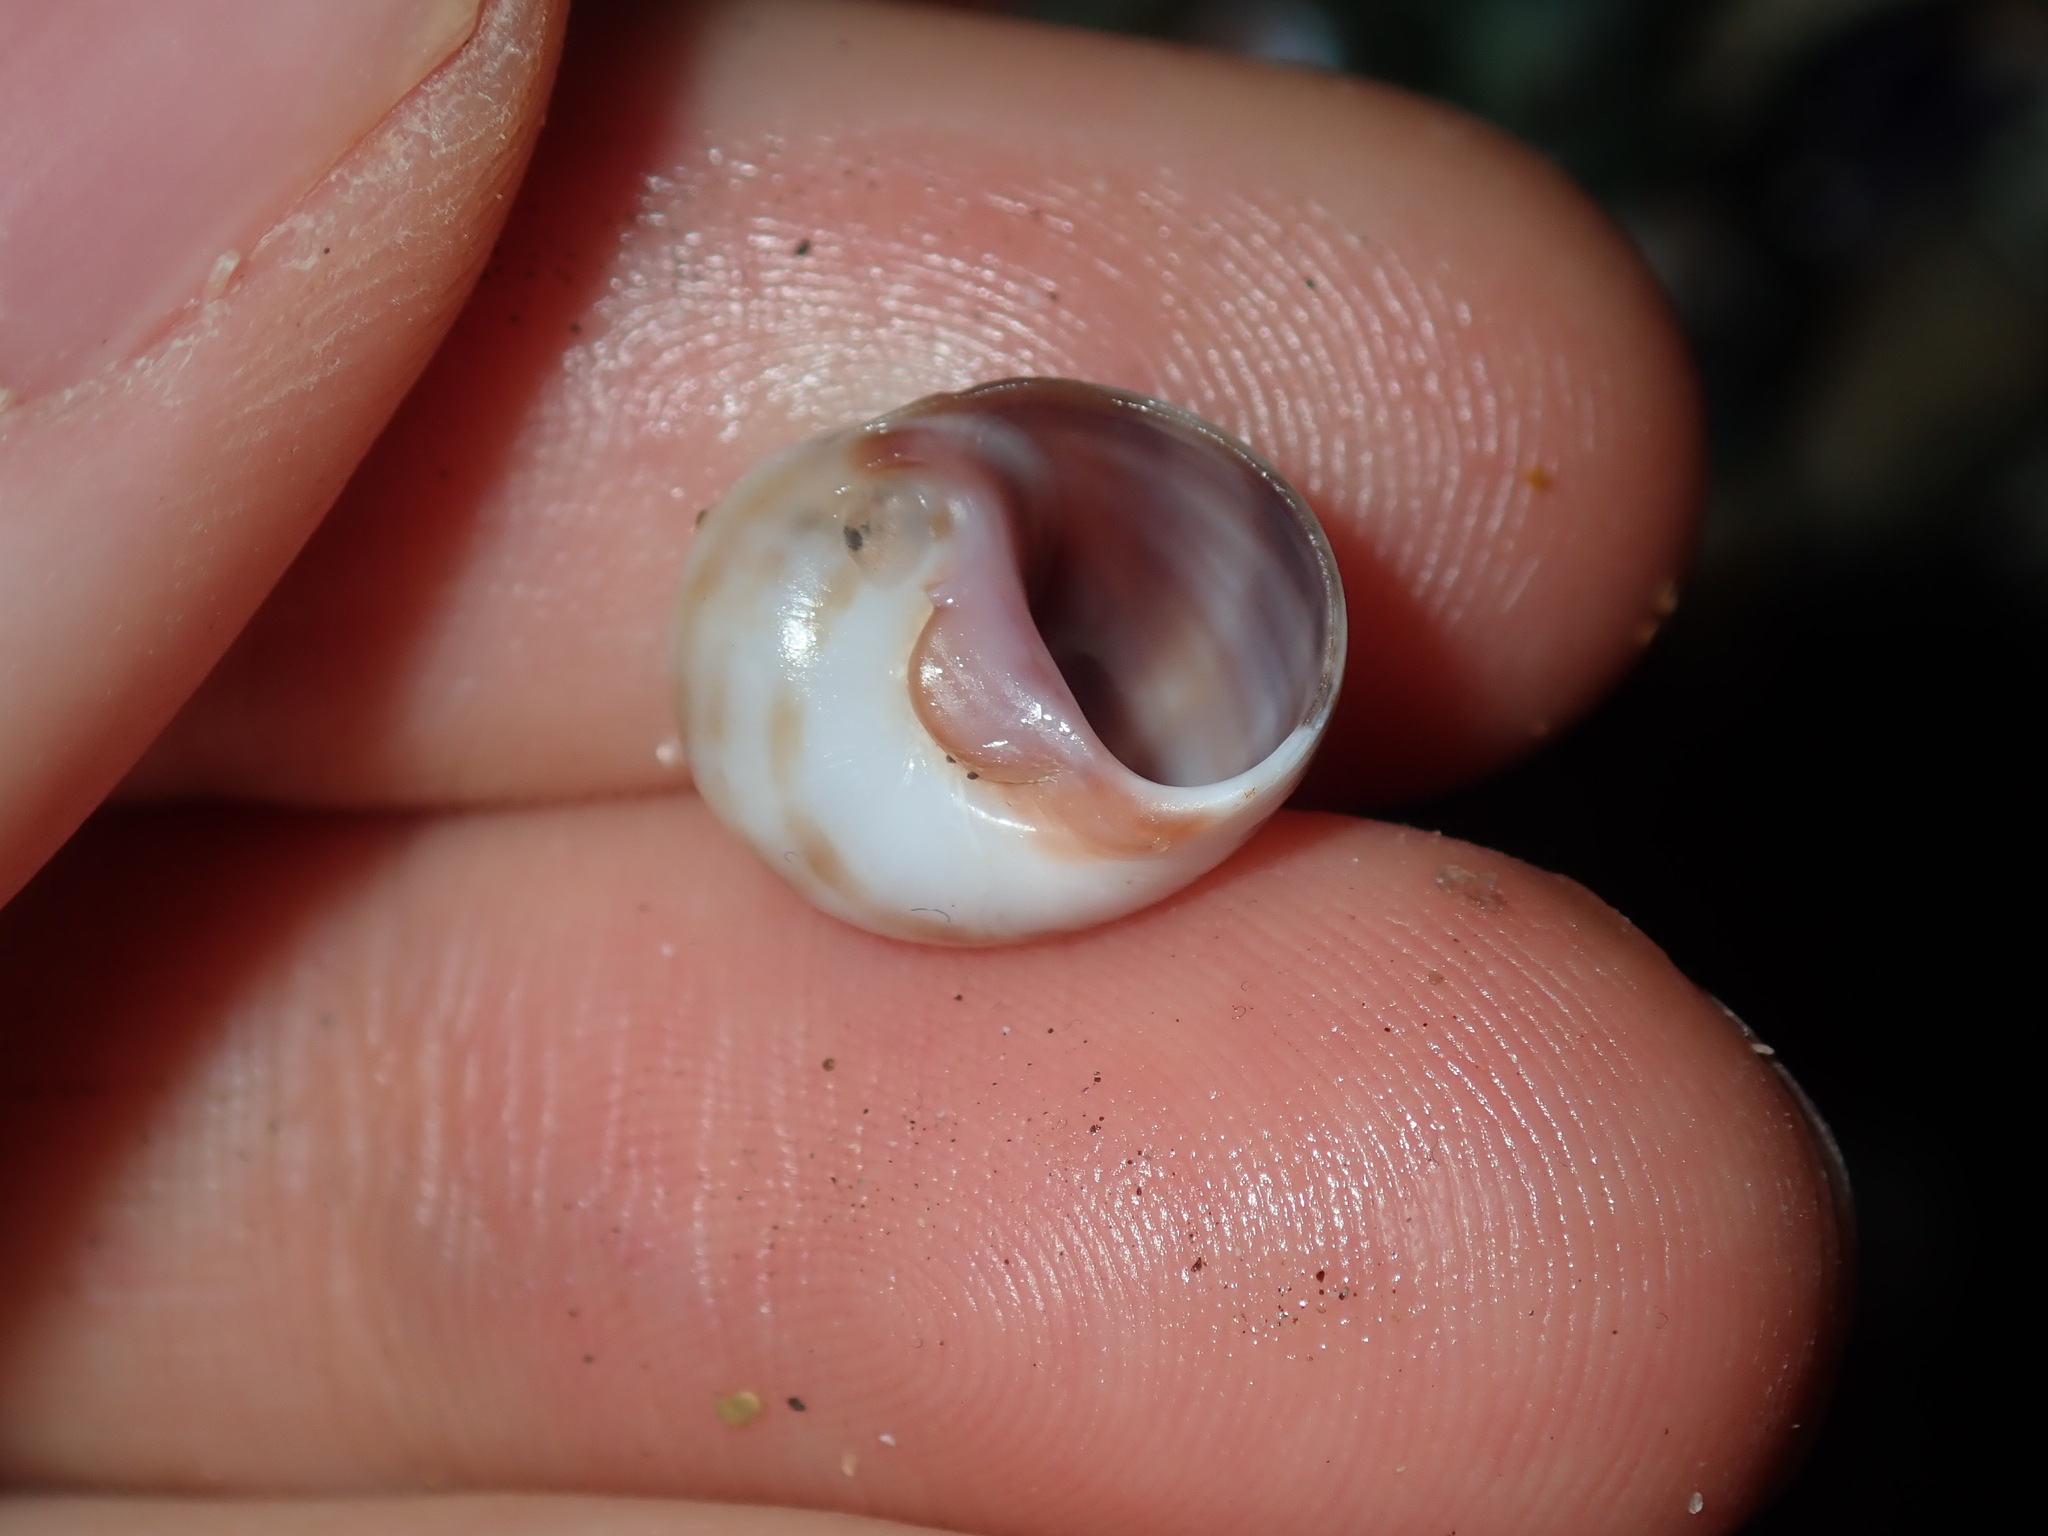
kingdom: Animalia
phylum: Mollusca
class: Gastropoda
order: Littorinimorpha
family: Naticidae
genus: Notocochlis
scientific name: Notocochlis gualteriana
